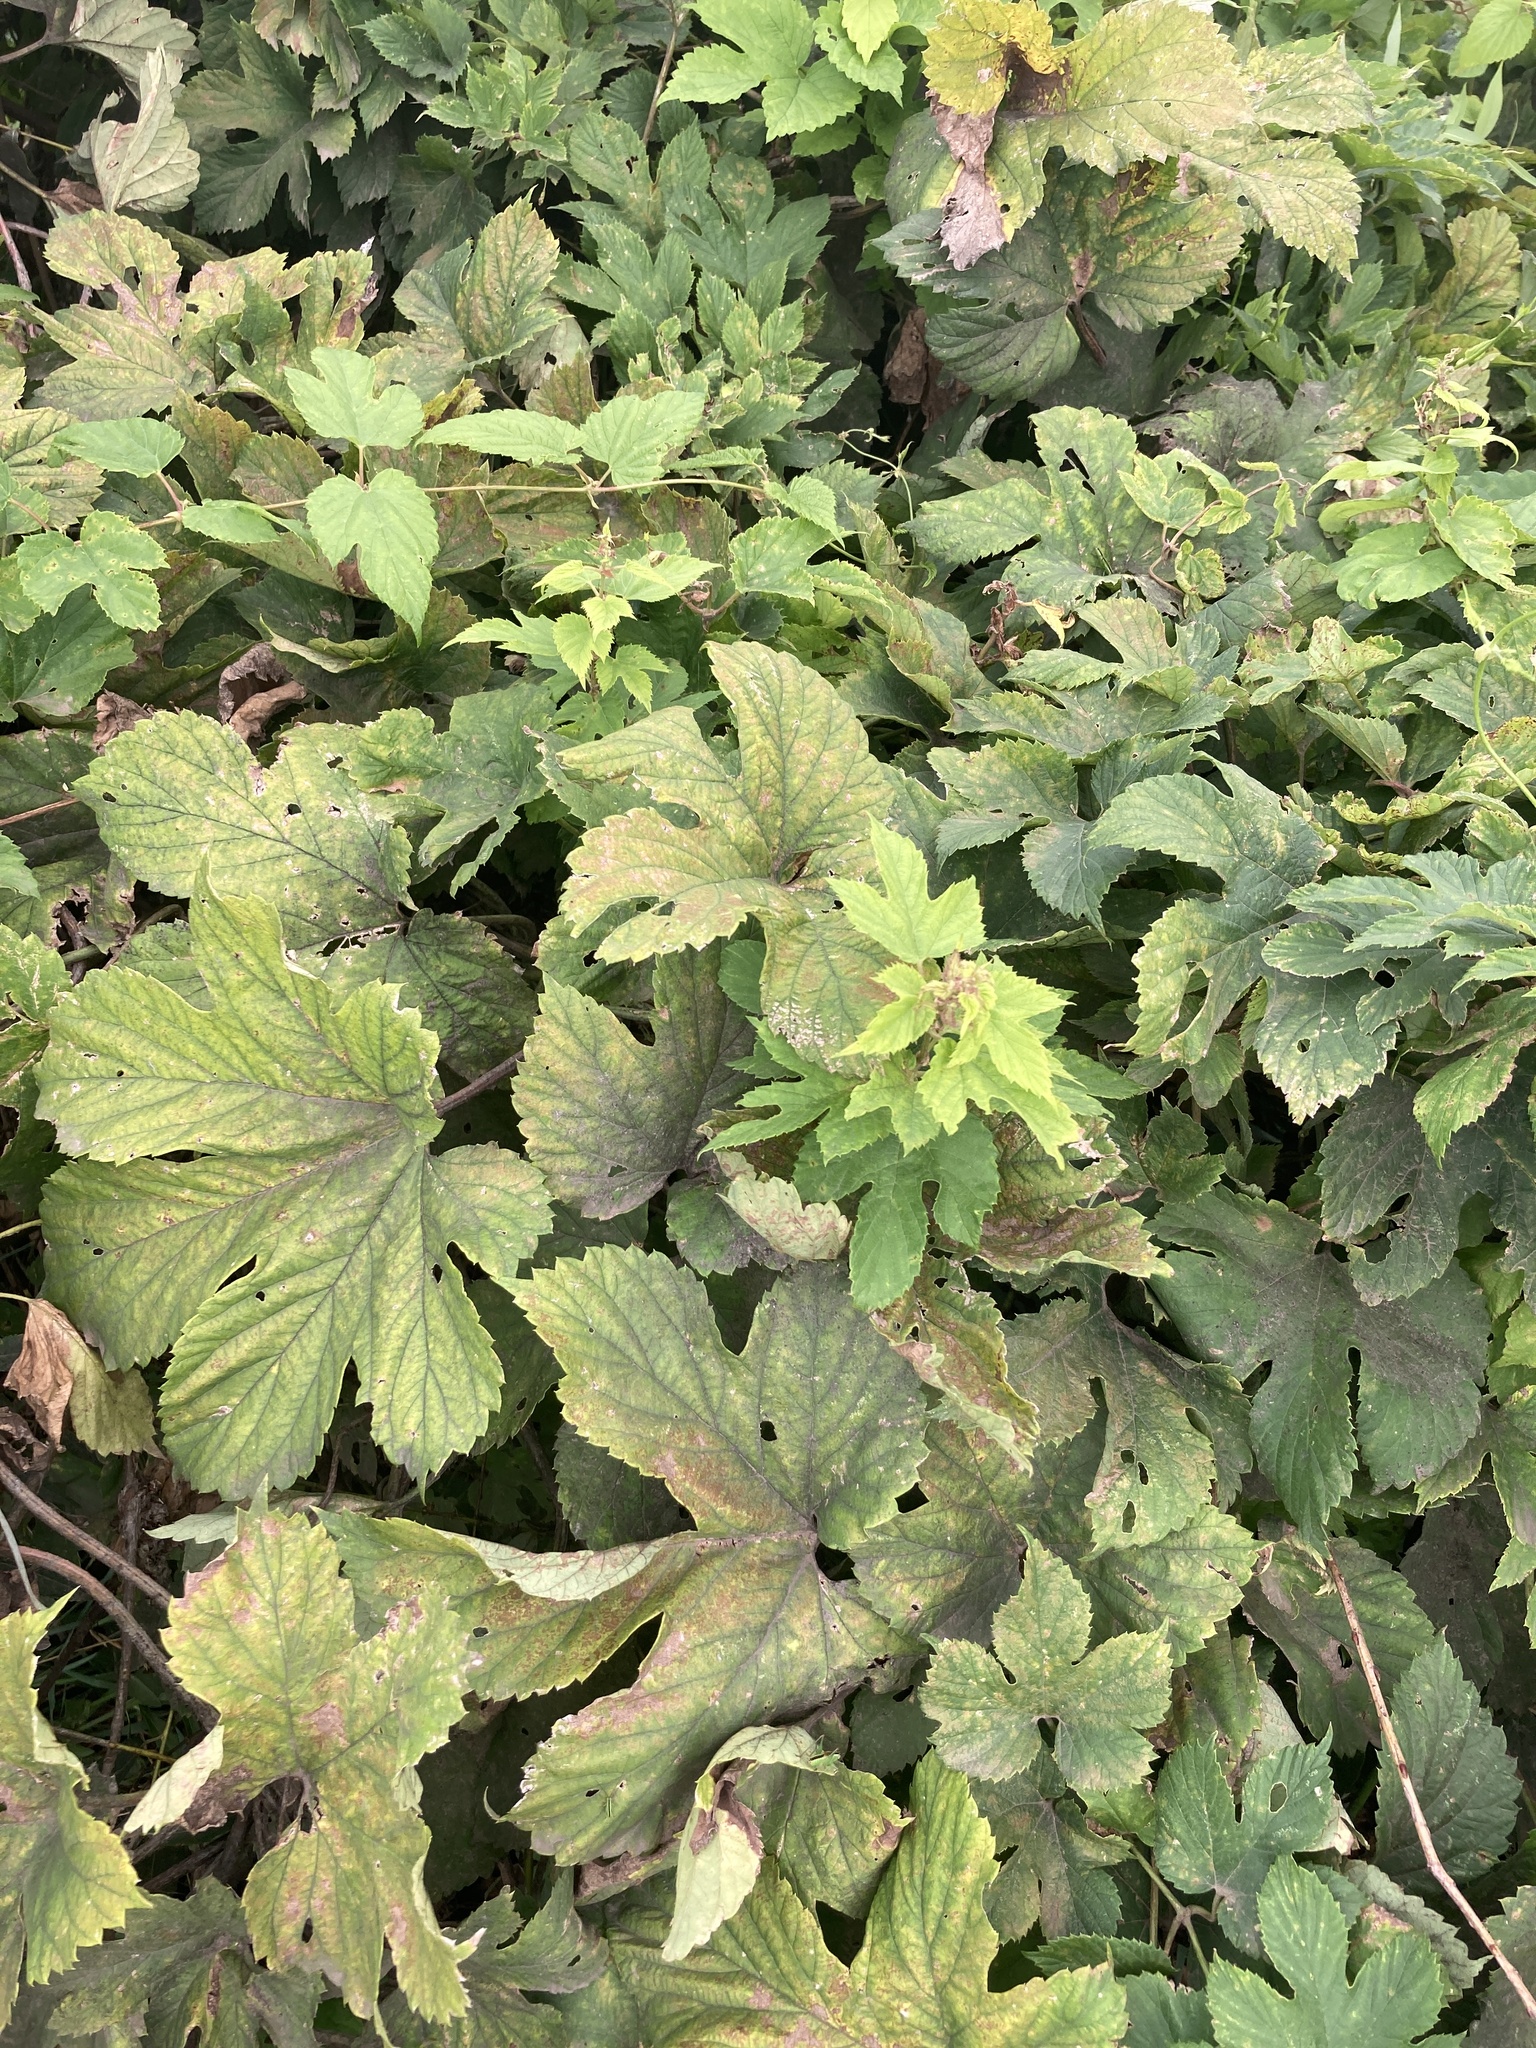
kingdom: Plantae
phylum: Tracheophyta
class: Magnoliopsida
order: Rosales
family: Cannabaceae
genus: Humulus
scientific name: Humulus lupulus
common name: Hop
